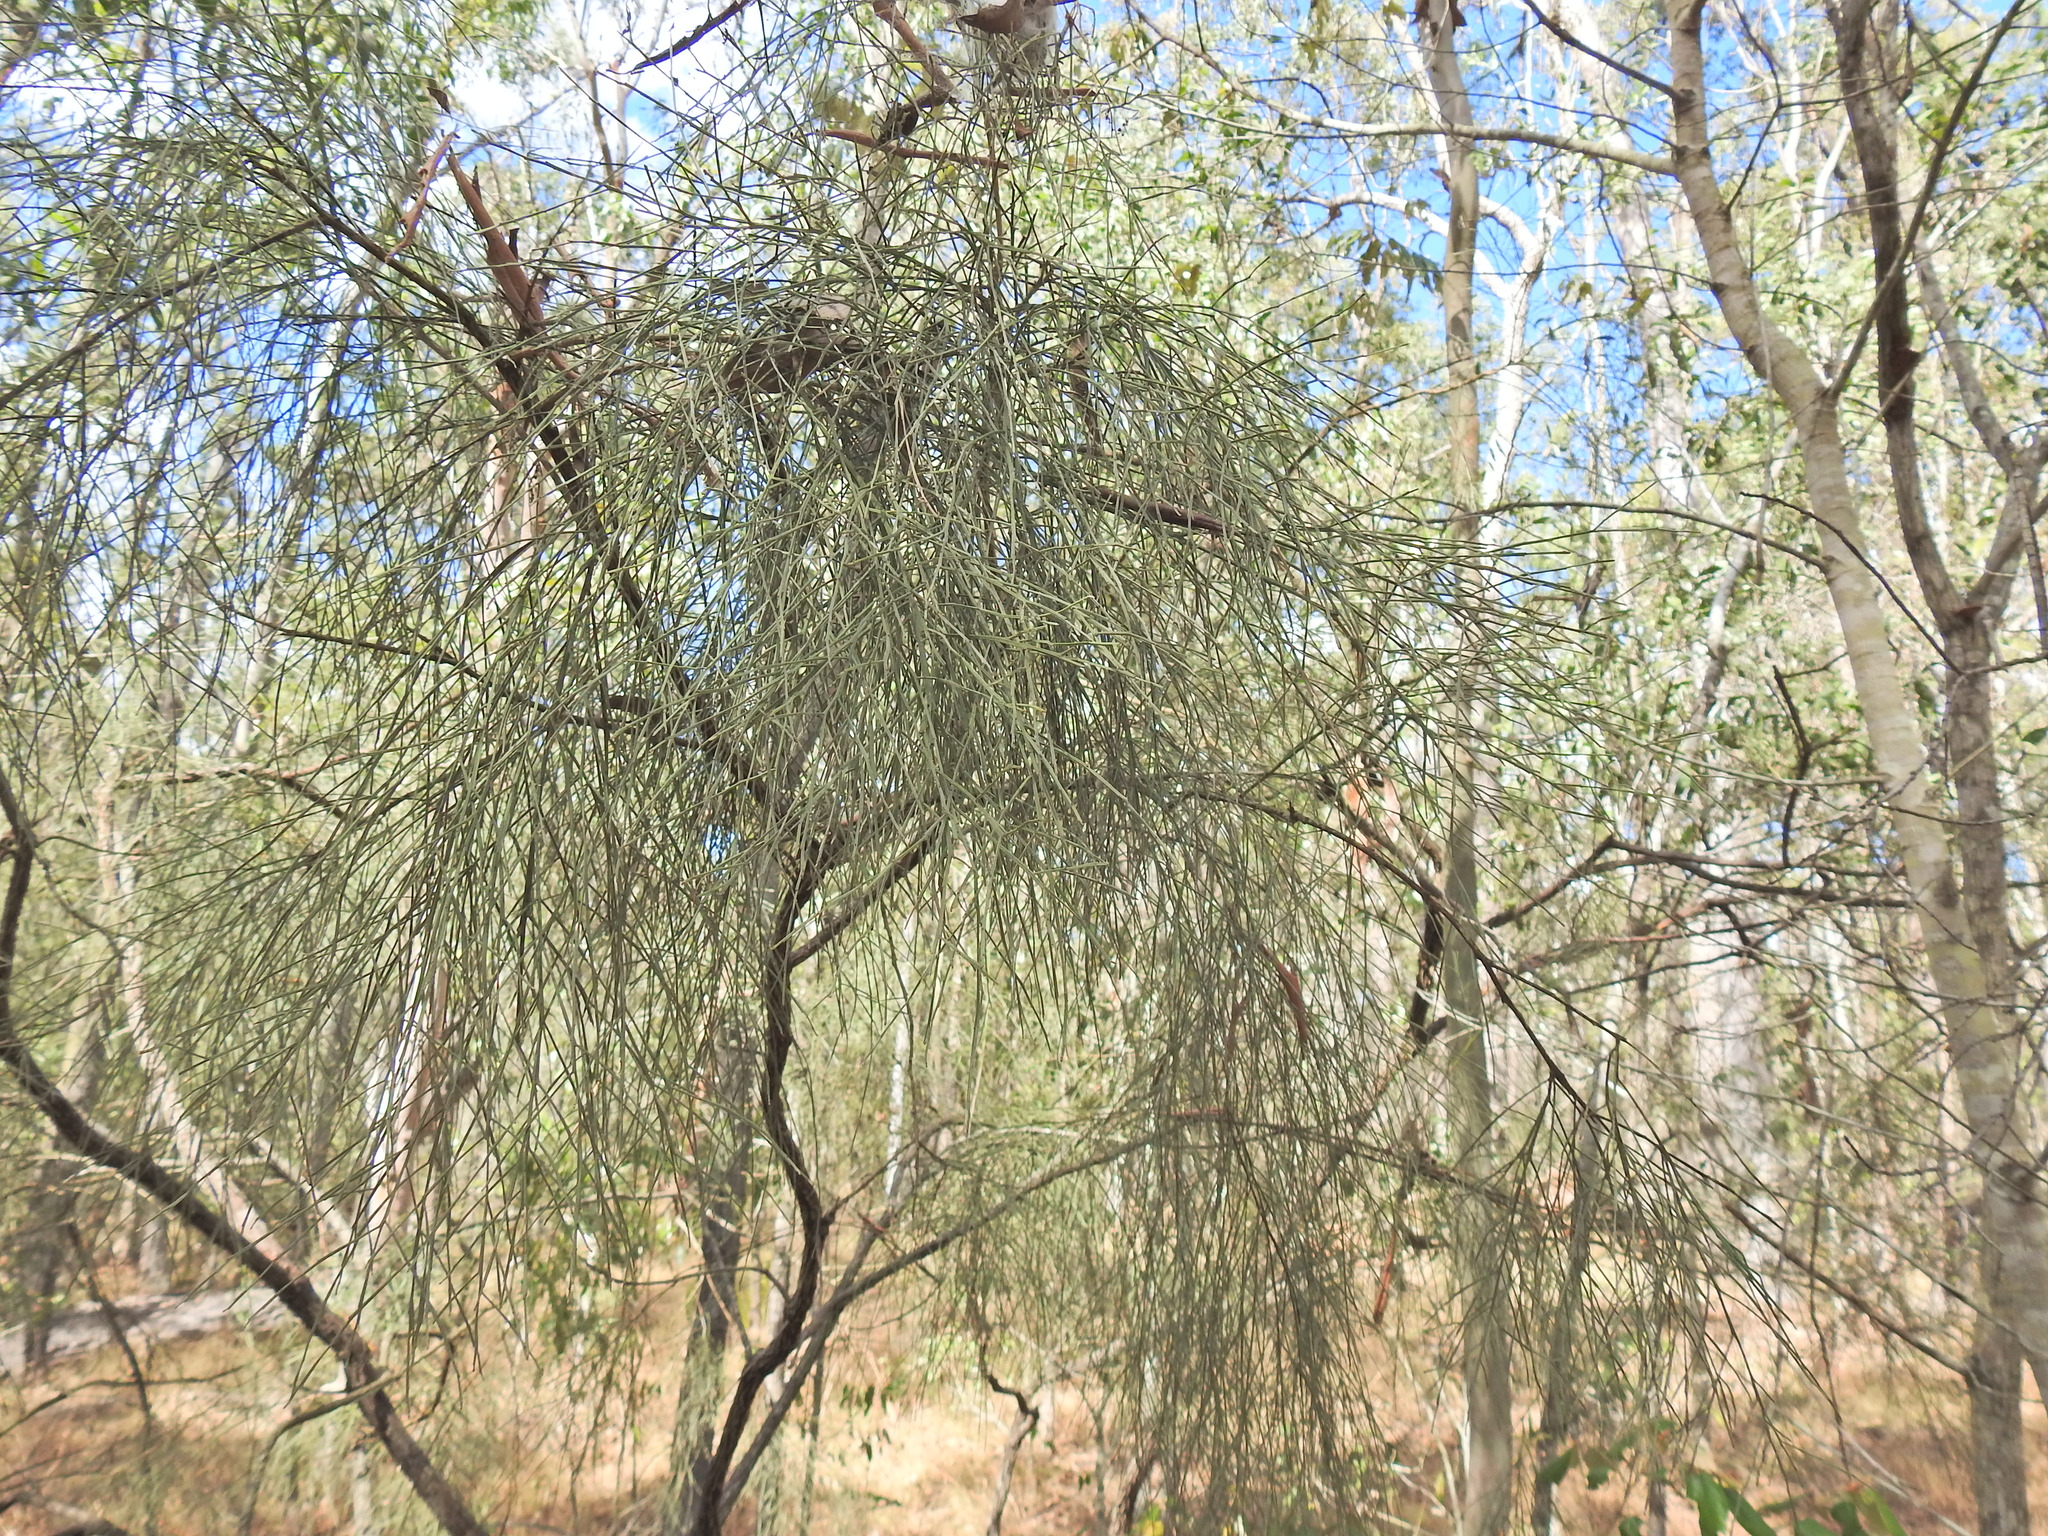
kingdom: Plantae
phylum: Tracheophyta
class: Magnoliopsida
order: Fabales
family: Fabaceae
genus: Jacksonia
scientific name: Jacksonia scoparia
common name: Dogwood
